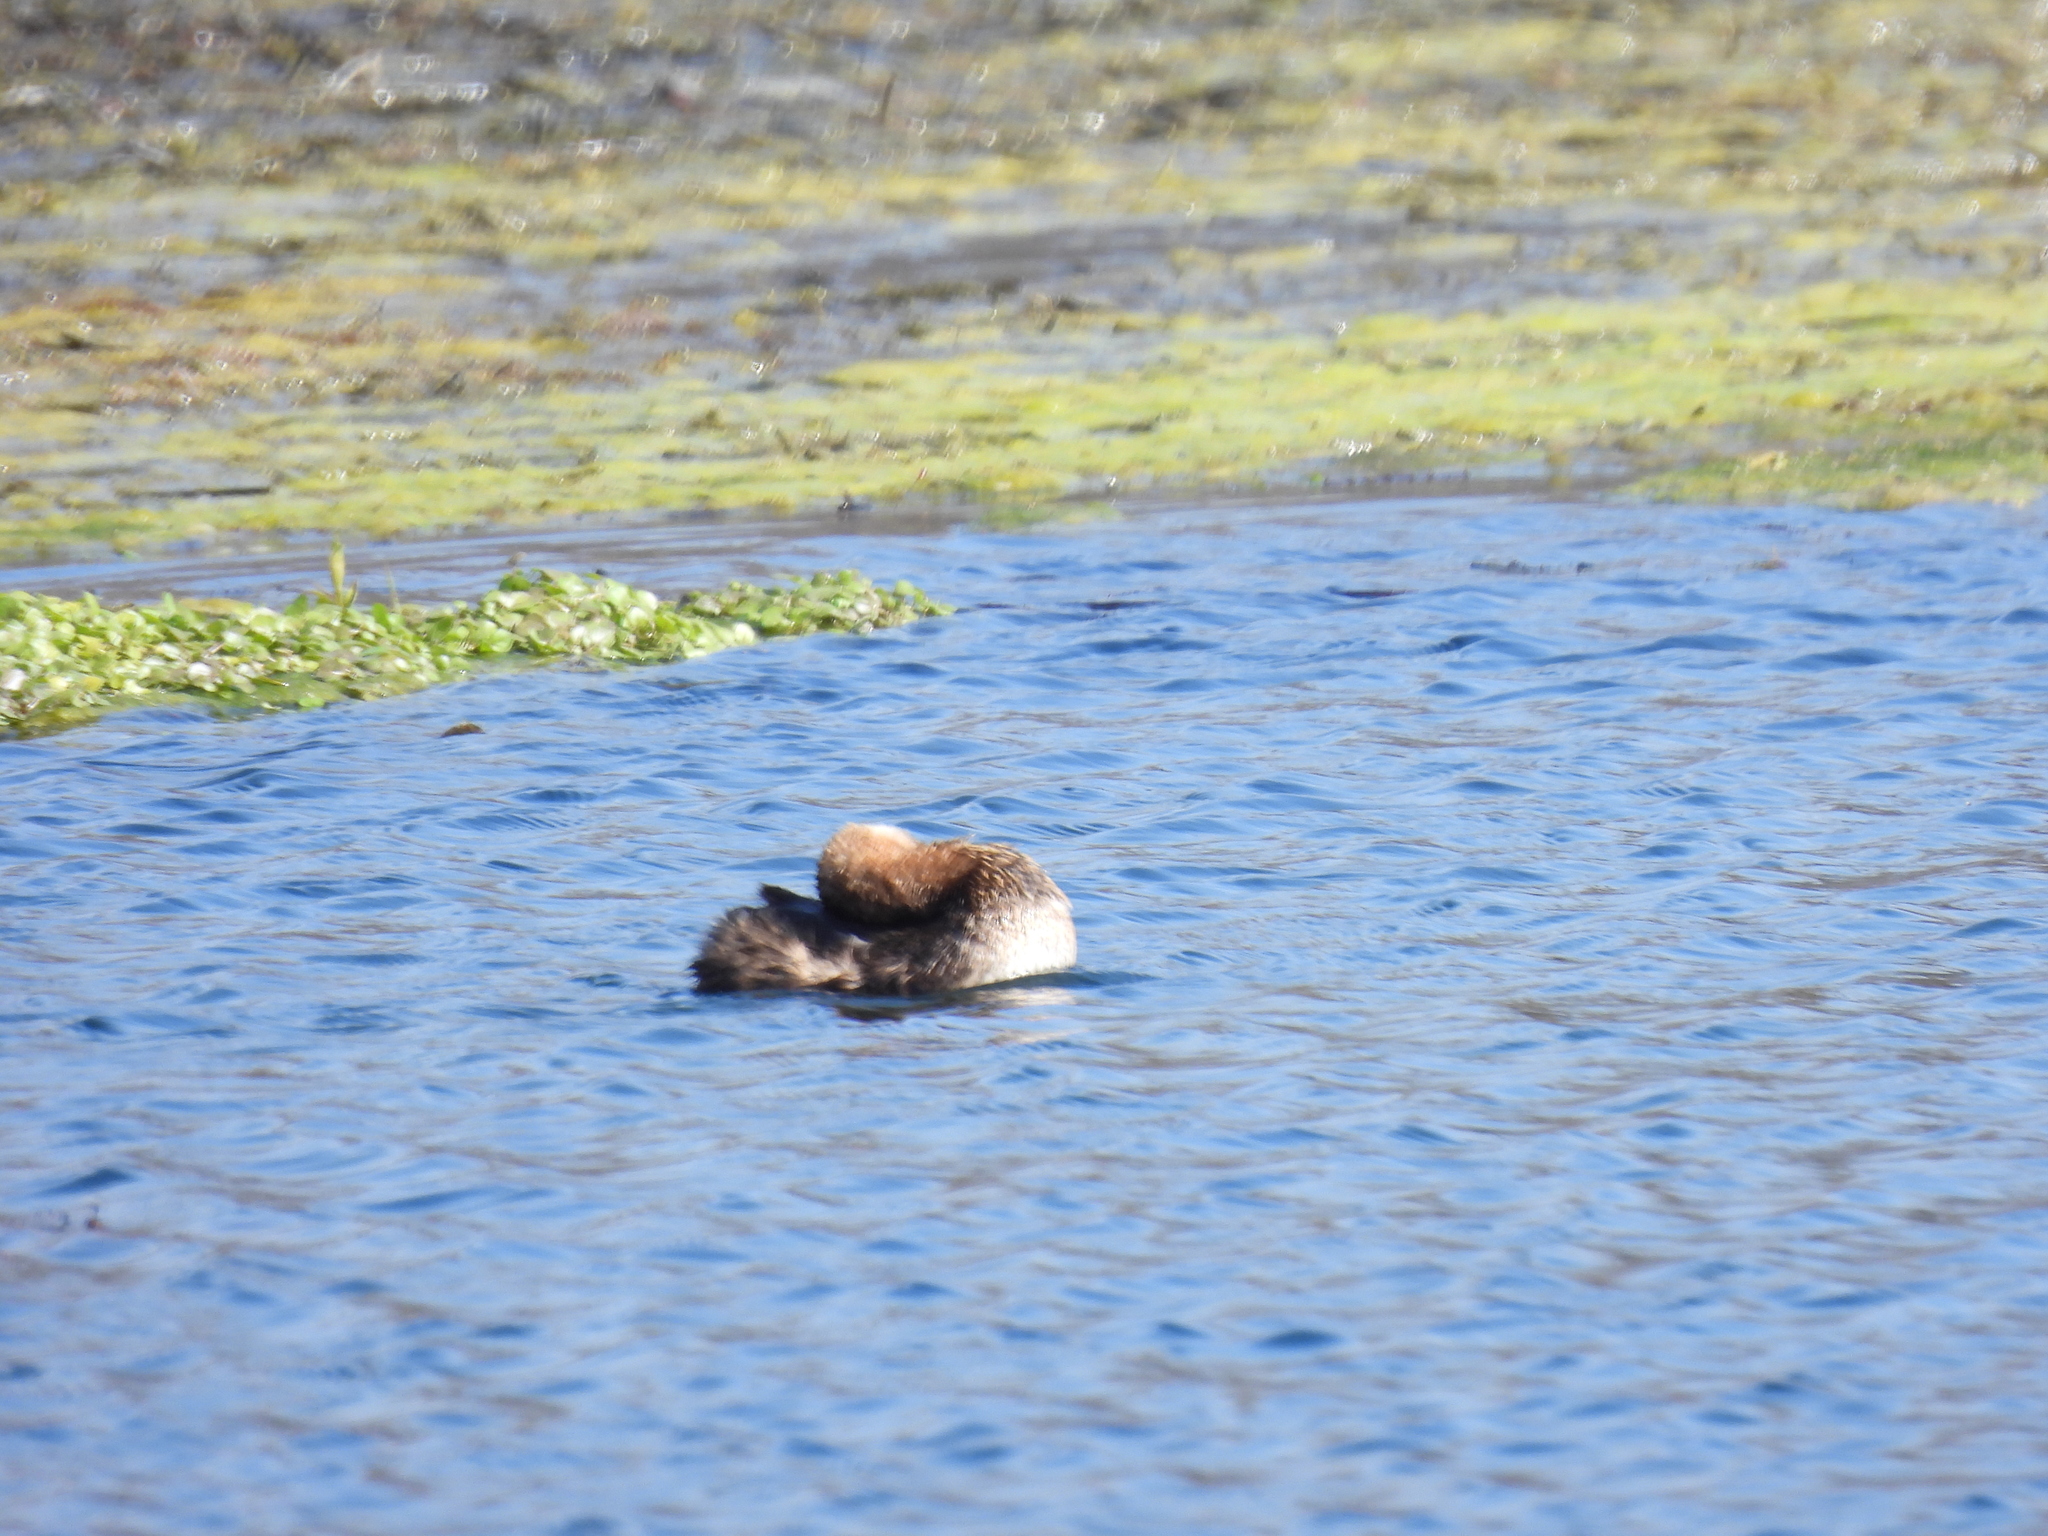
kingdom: Animalia
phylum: Chordata
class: Aves
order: Podicipediformes
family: Podicipedidae
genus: Podilymbus
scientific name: Podilymbus podiceps
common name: Pied-billed grebe
